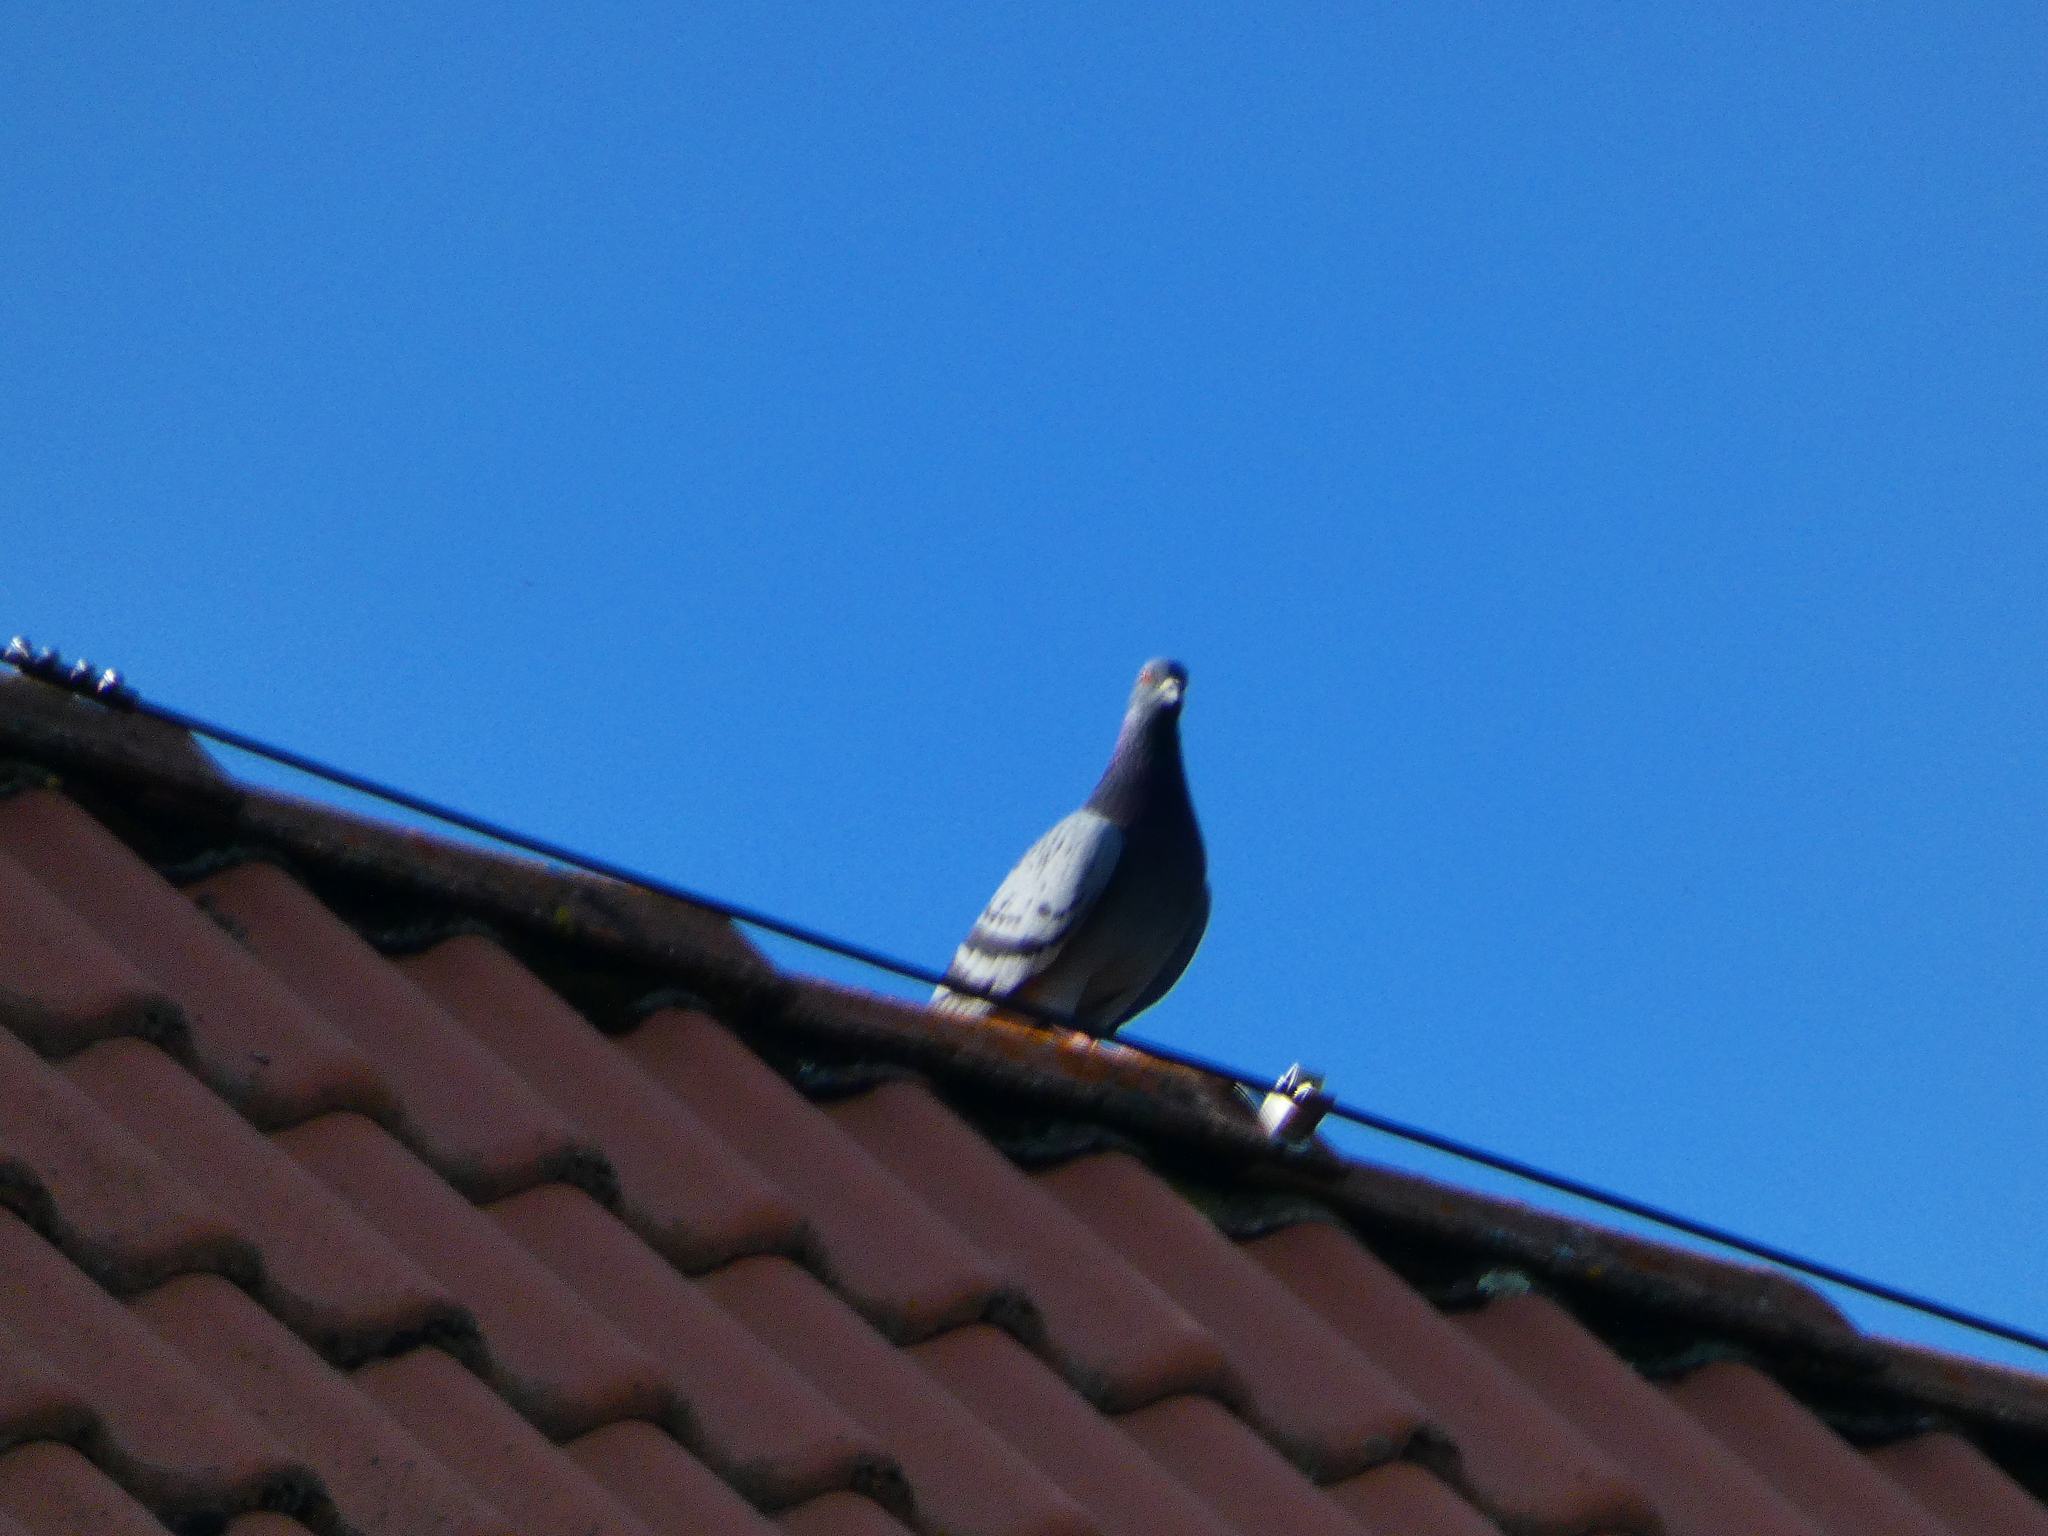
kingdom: Animalia
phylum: Chordata
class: Aves
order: Columbiformes
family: Columbidae
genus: Columba
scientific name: Columba livia
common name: Rock pigeon
